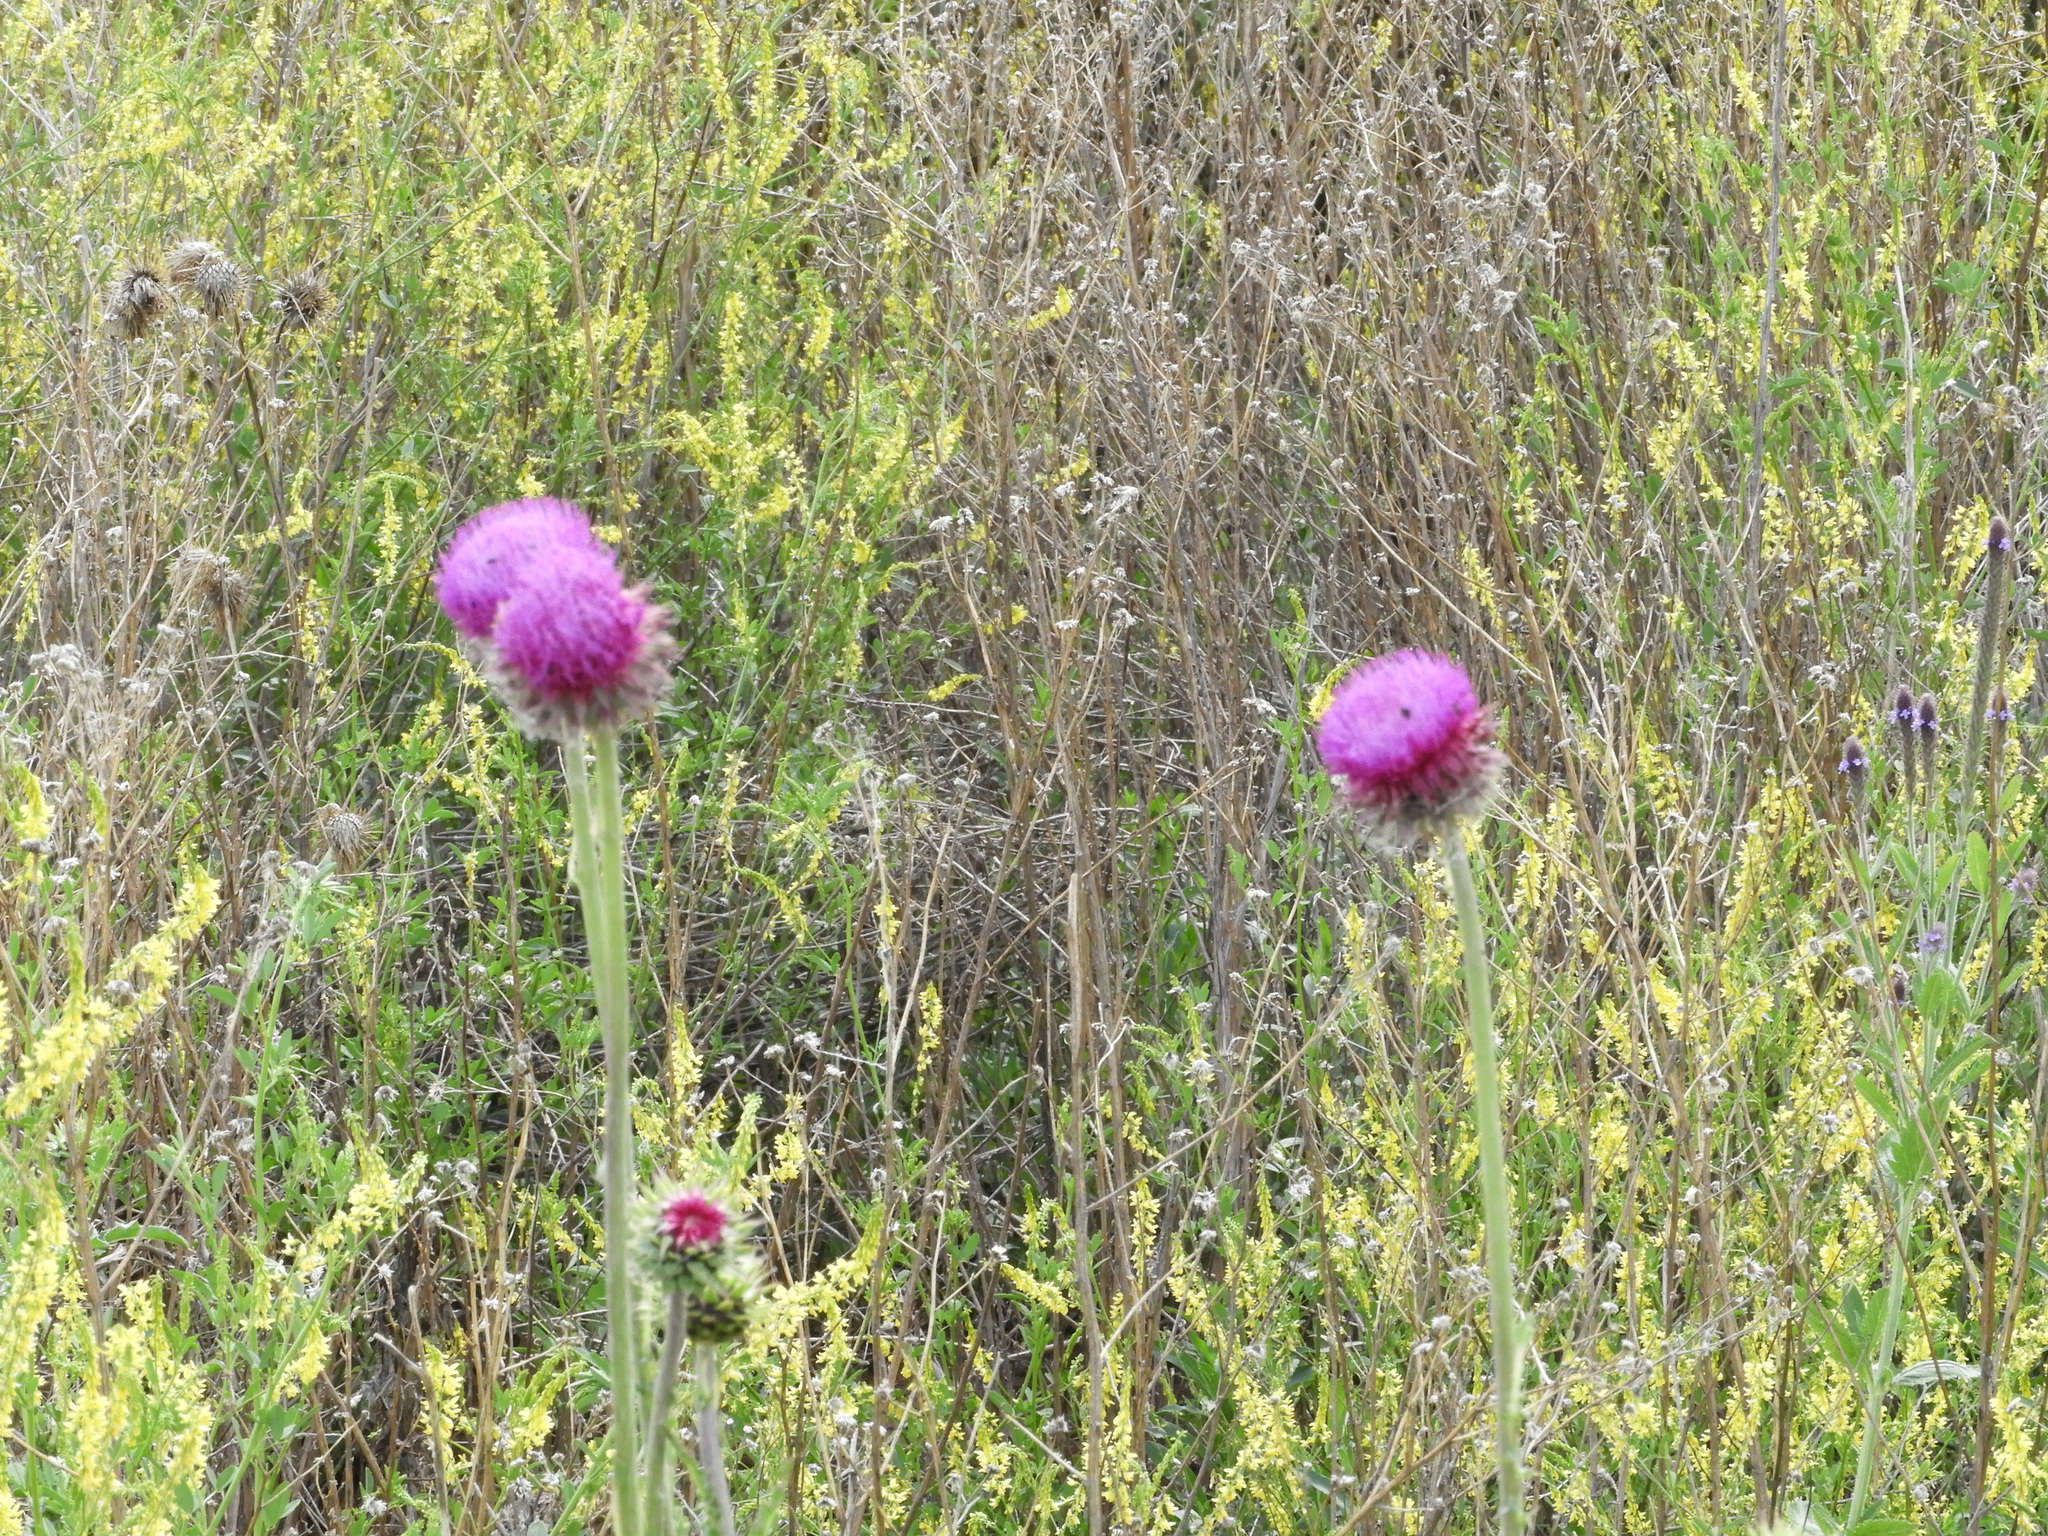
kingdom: Plantae
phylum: Tracheophyta
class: Magnoliopsida
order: Asterales
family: Asteraceae
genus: Carduus
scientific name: Carduus nutans
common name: Musk thistle
